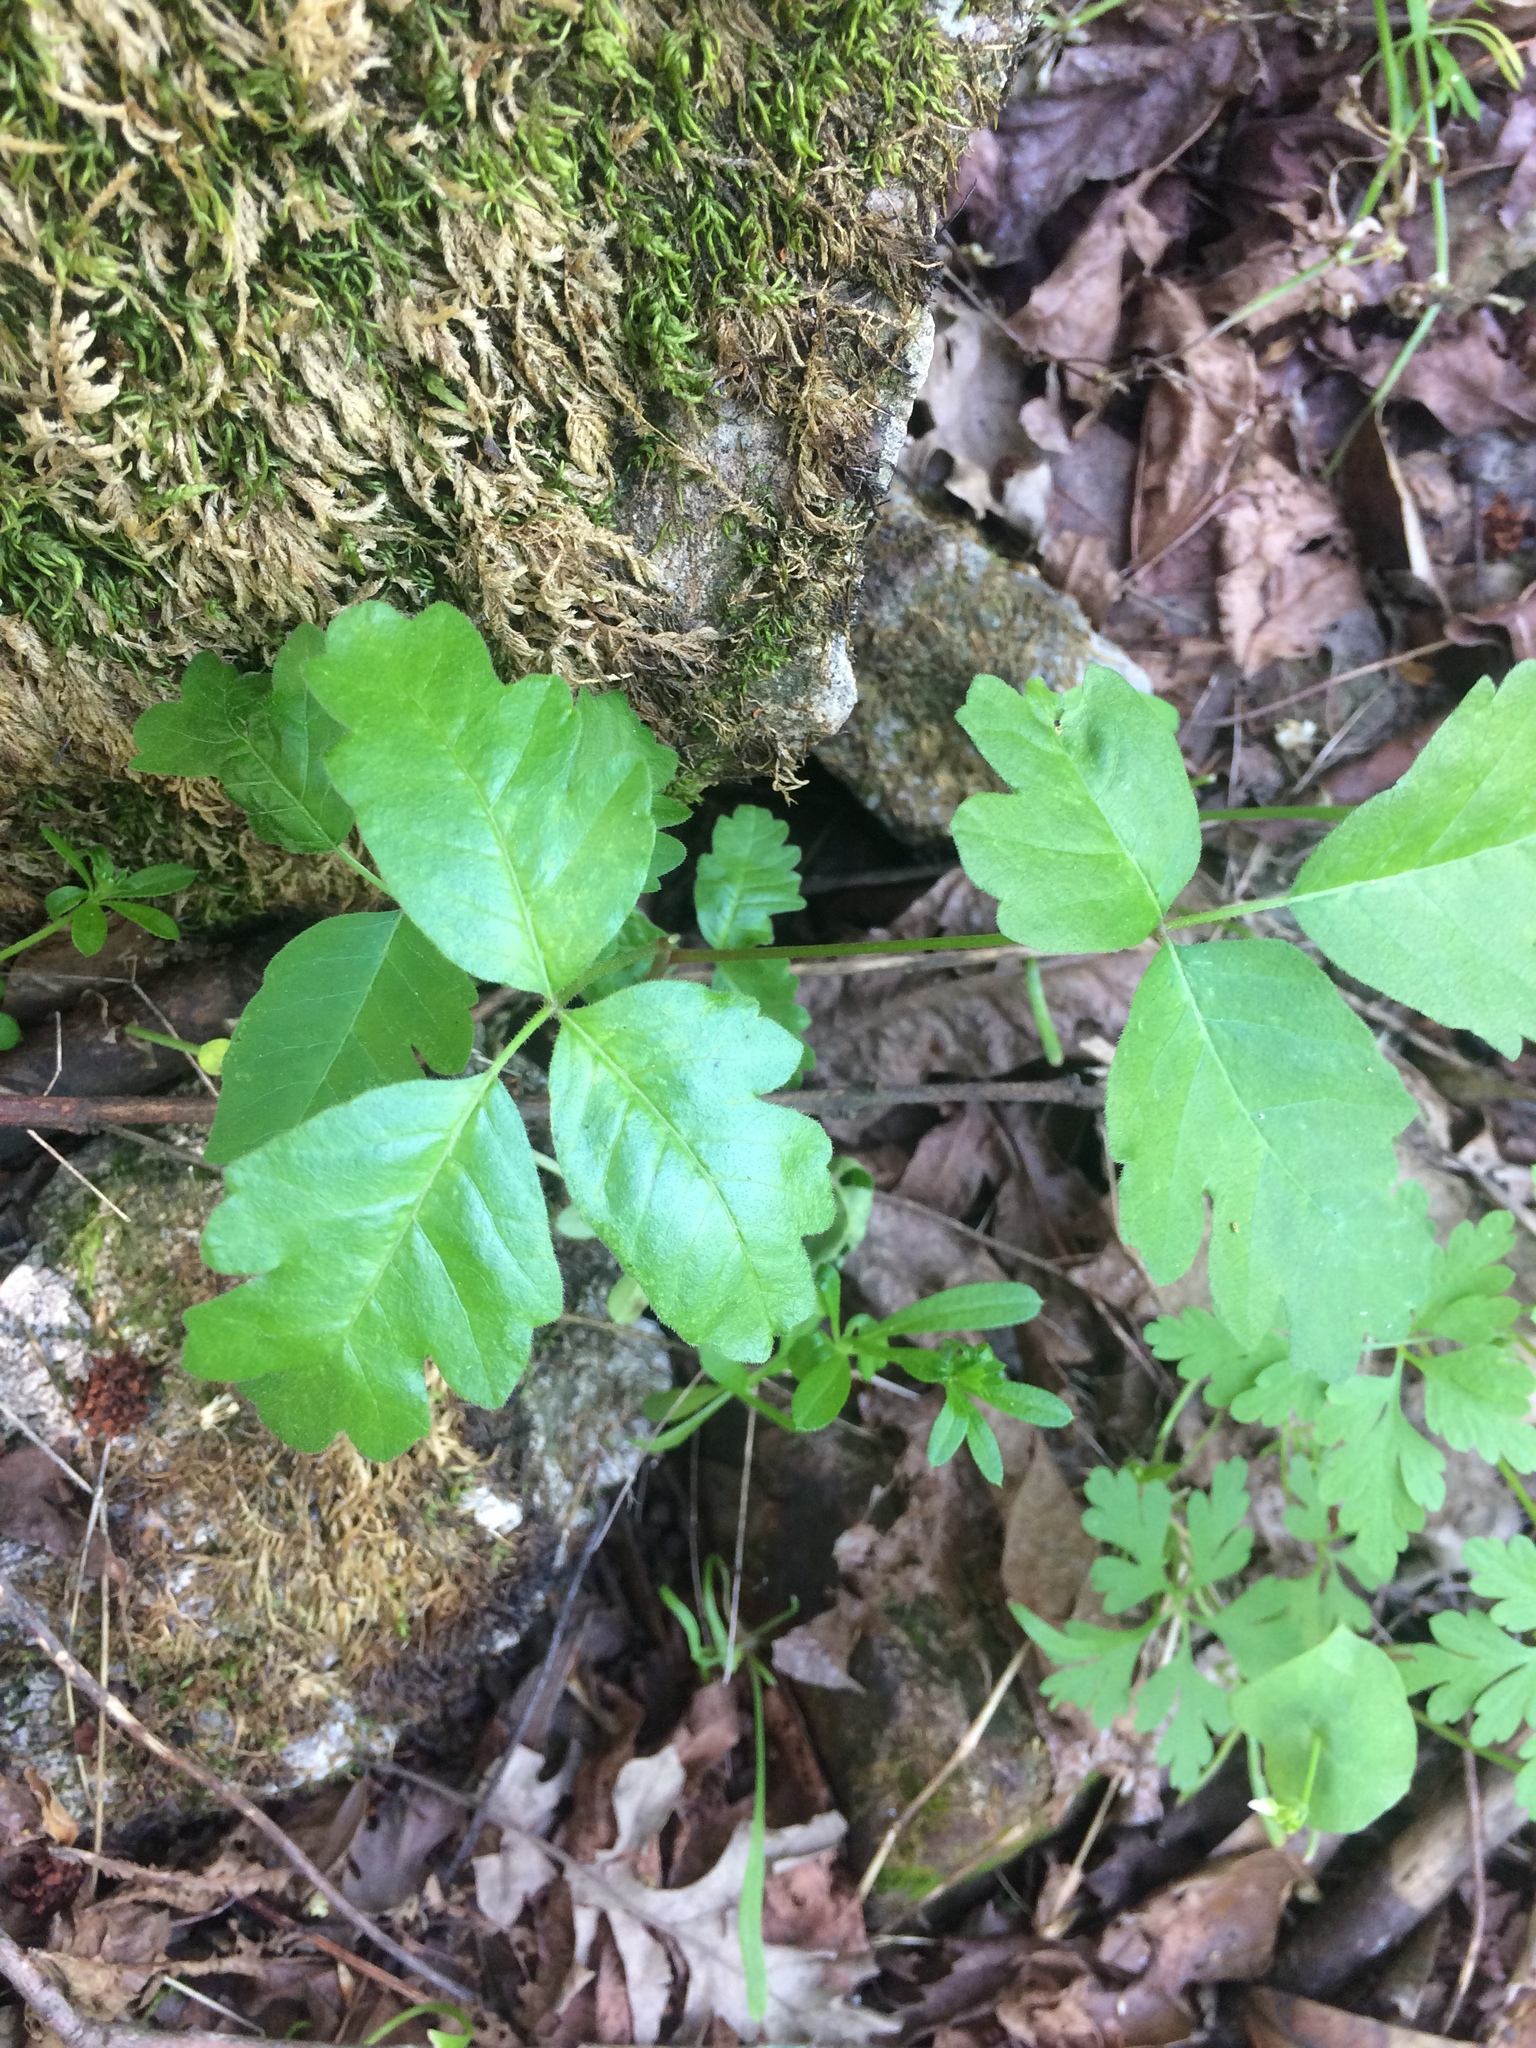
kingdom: Plantae
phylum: Tracheophyta
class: Magnoliopsida
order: Sapindales
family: Anacardiaceae
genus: Toxicodendron
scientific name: Toxicodendron diversilobum
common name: Pacific poison-oak
